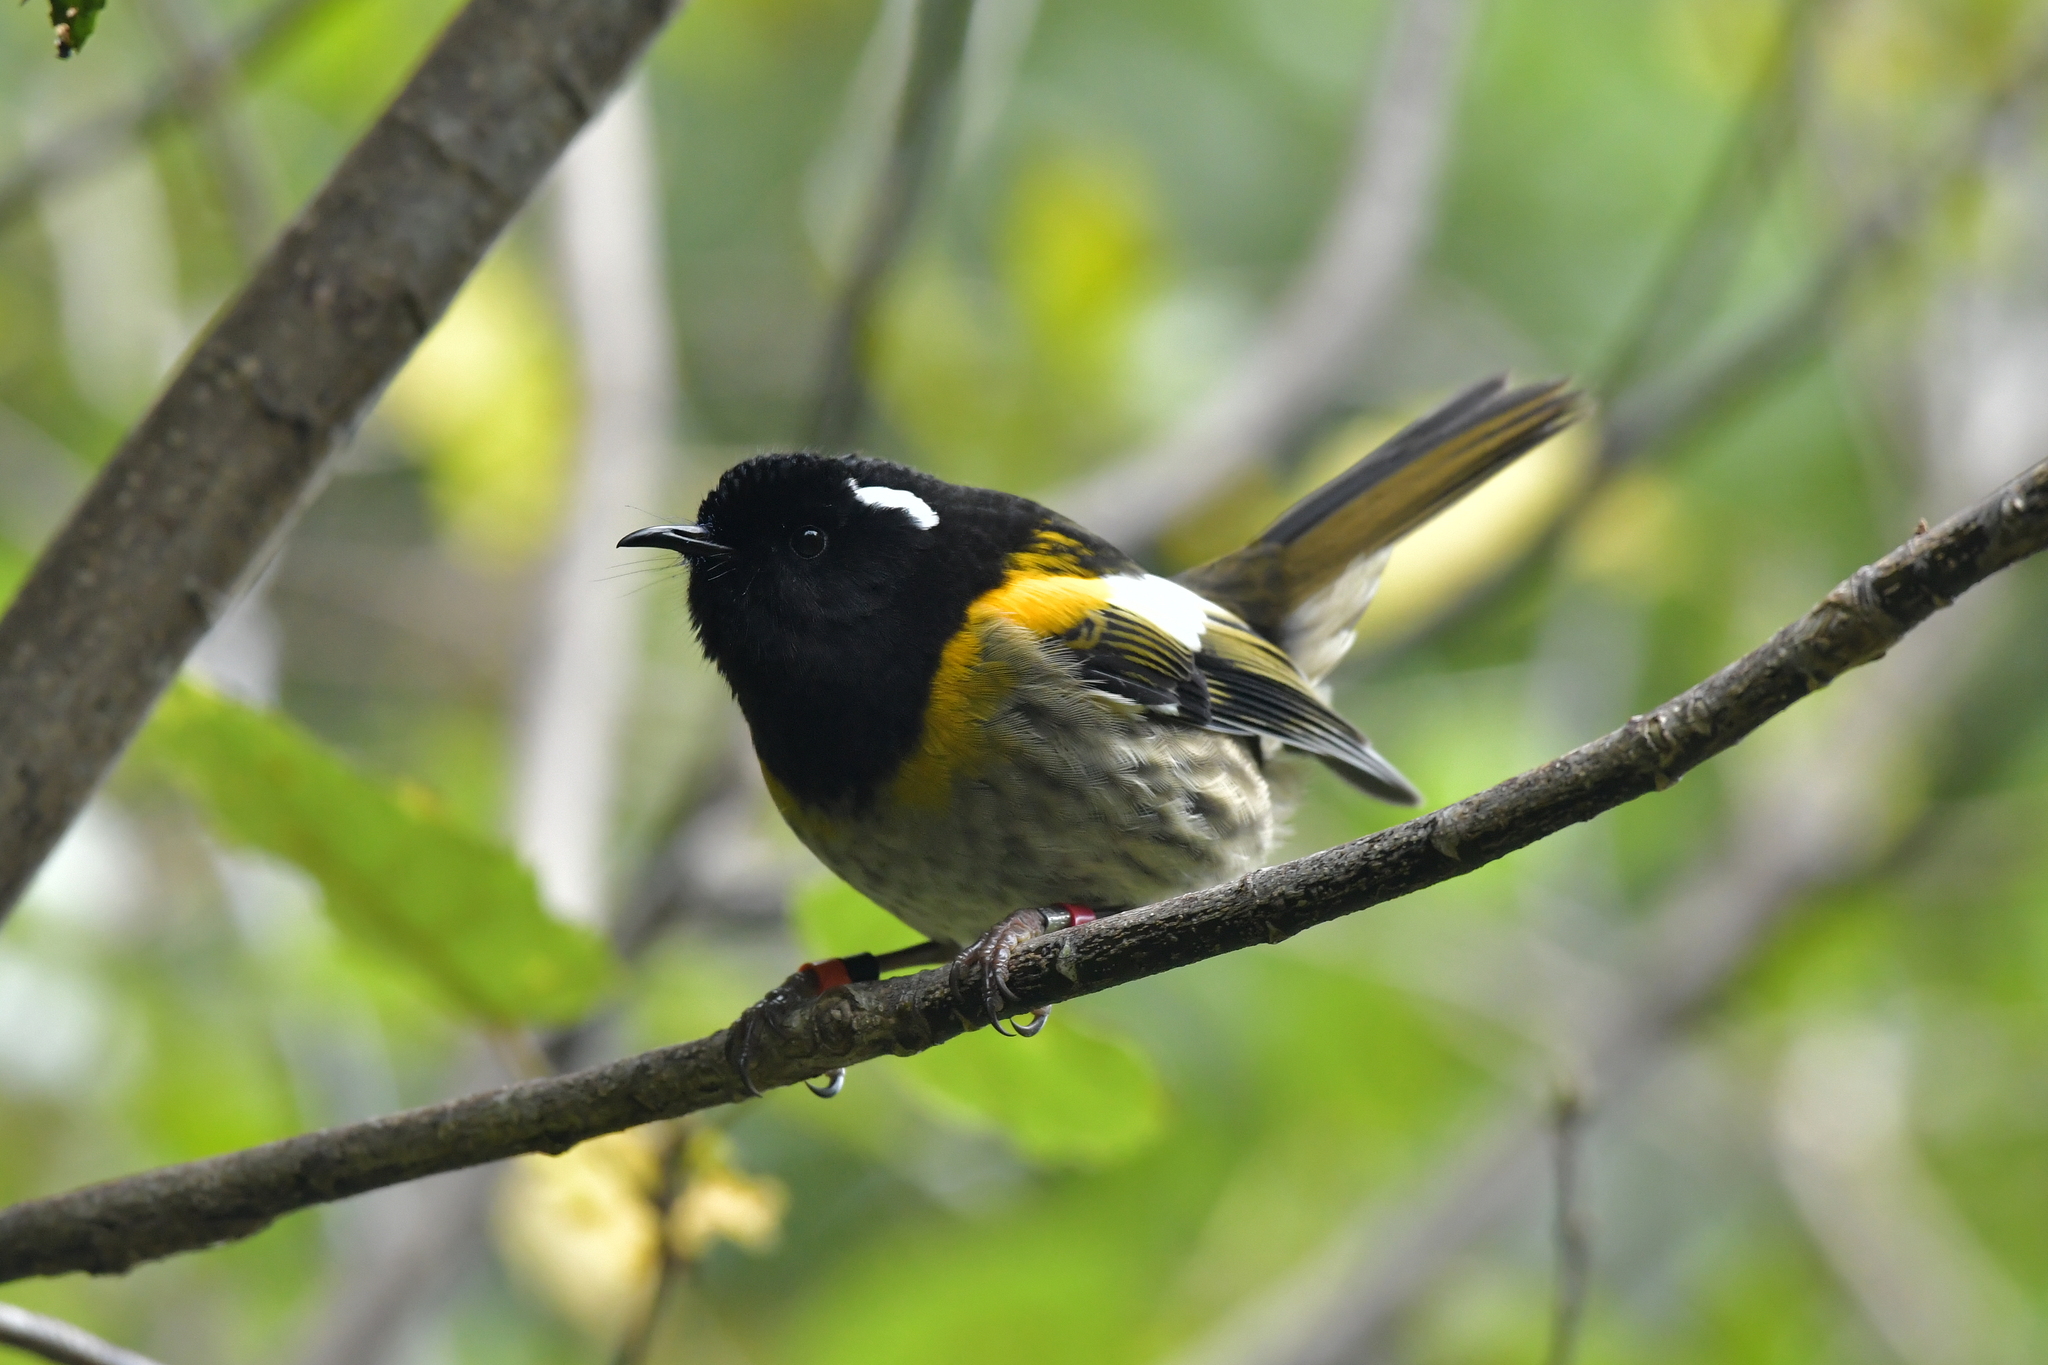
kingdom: Animalia
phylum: Chordata
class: Aves
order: Passeriformes
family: Notiomystidae
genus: Notiomystis
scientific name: Notiomystis cincta
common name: Stitchbird
